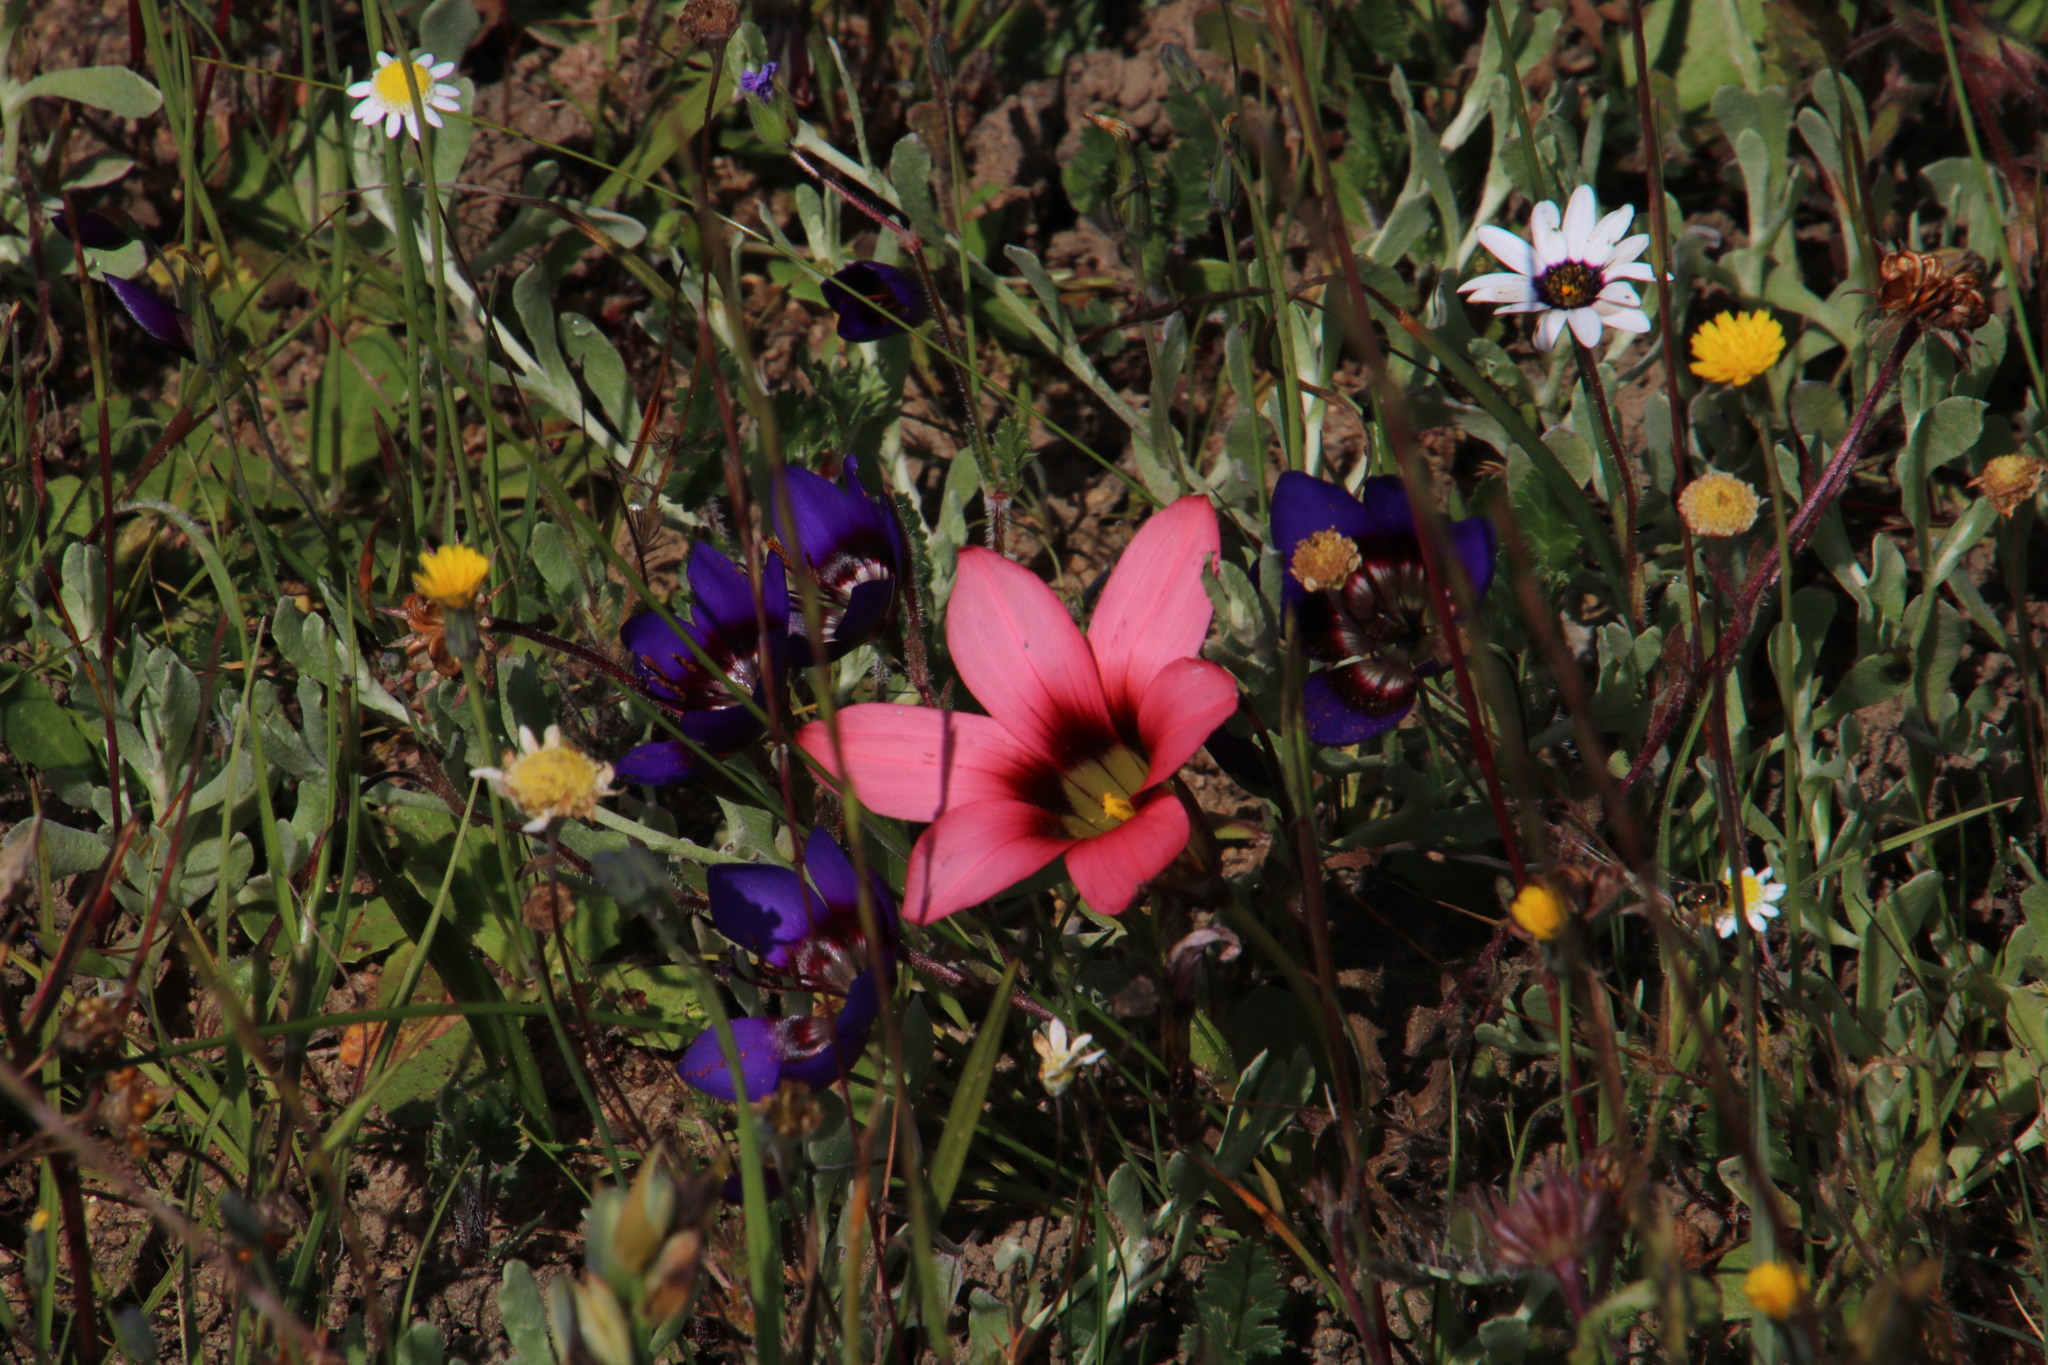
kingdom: Plantae
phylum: Tracheophyta
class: Liliopsida
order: Asparagales
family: Iridaceae
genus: Romulea
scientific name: Romulea hirsuta
